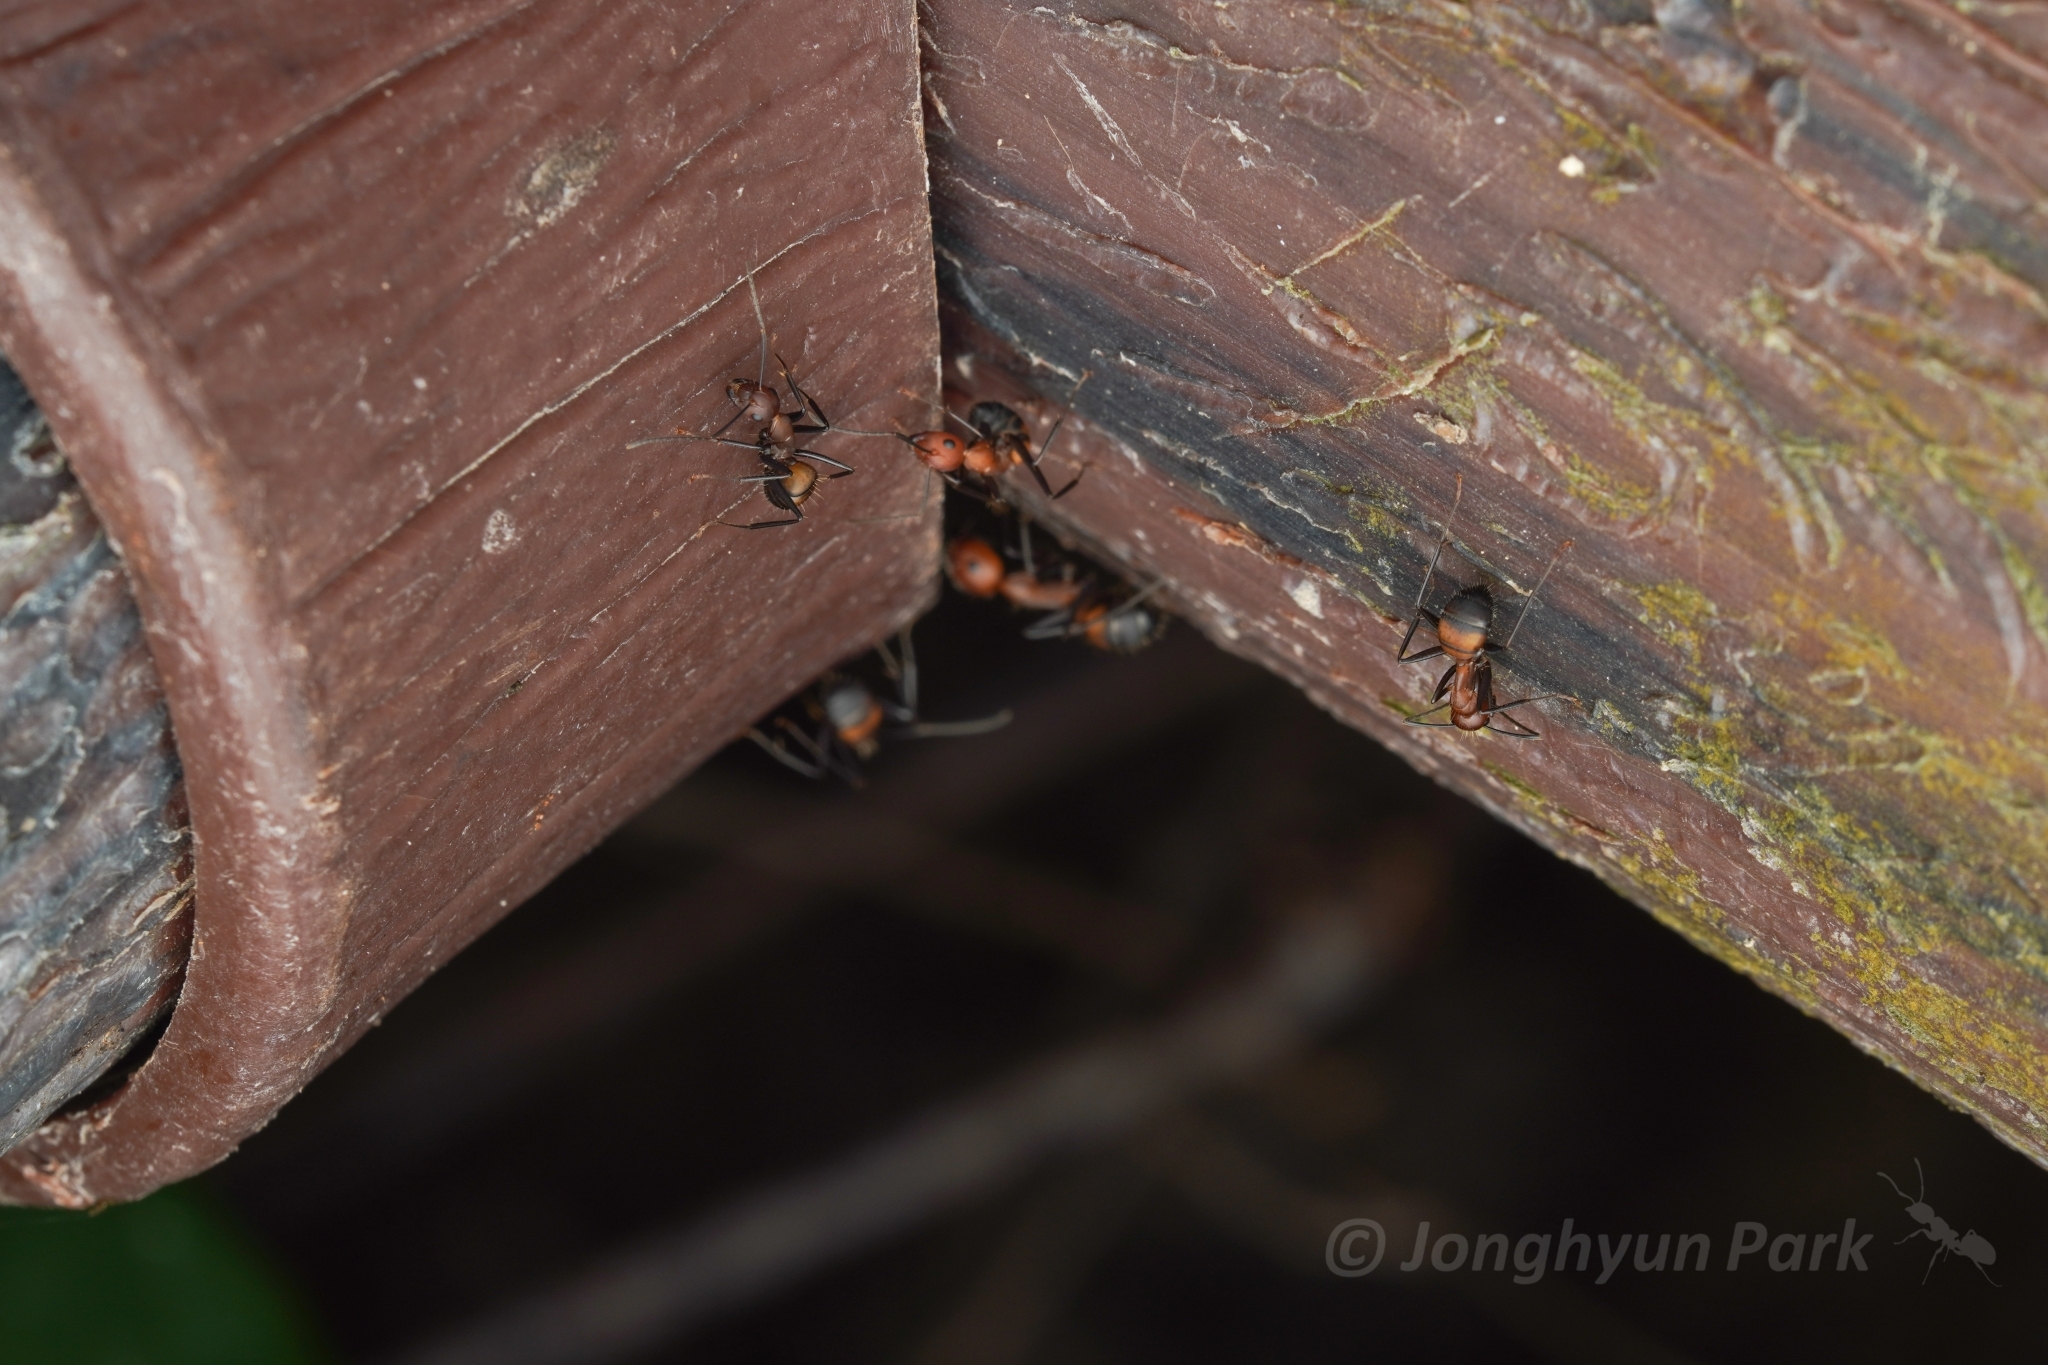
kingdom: Animalia
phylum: Arthropoda
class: Insecta
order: Hymenoptera
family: Formicidae
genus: Camponotus
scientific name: Camponotus nicobarensis
